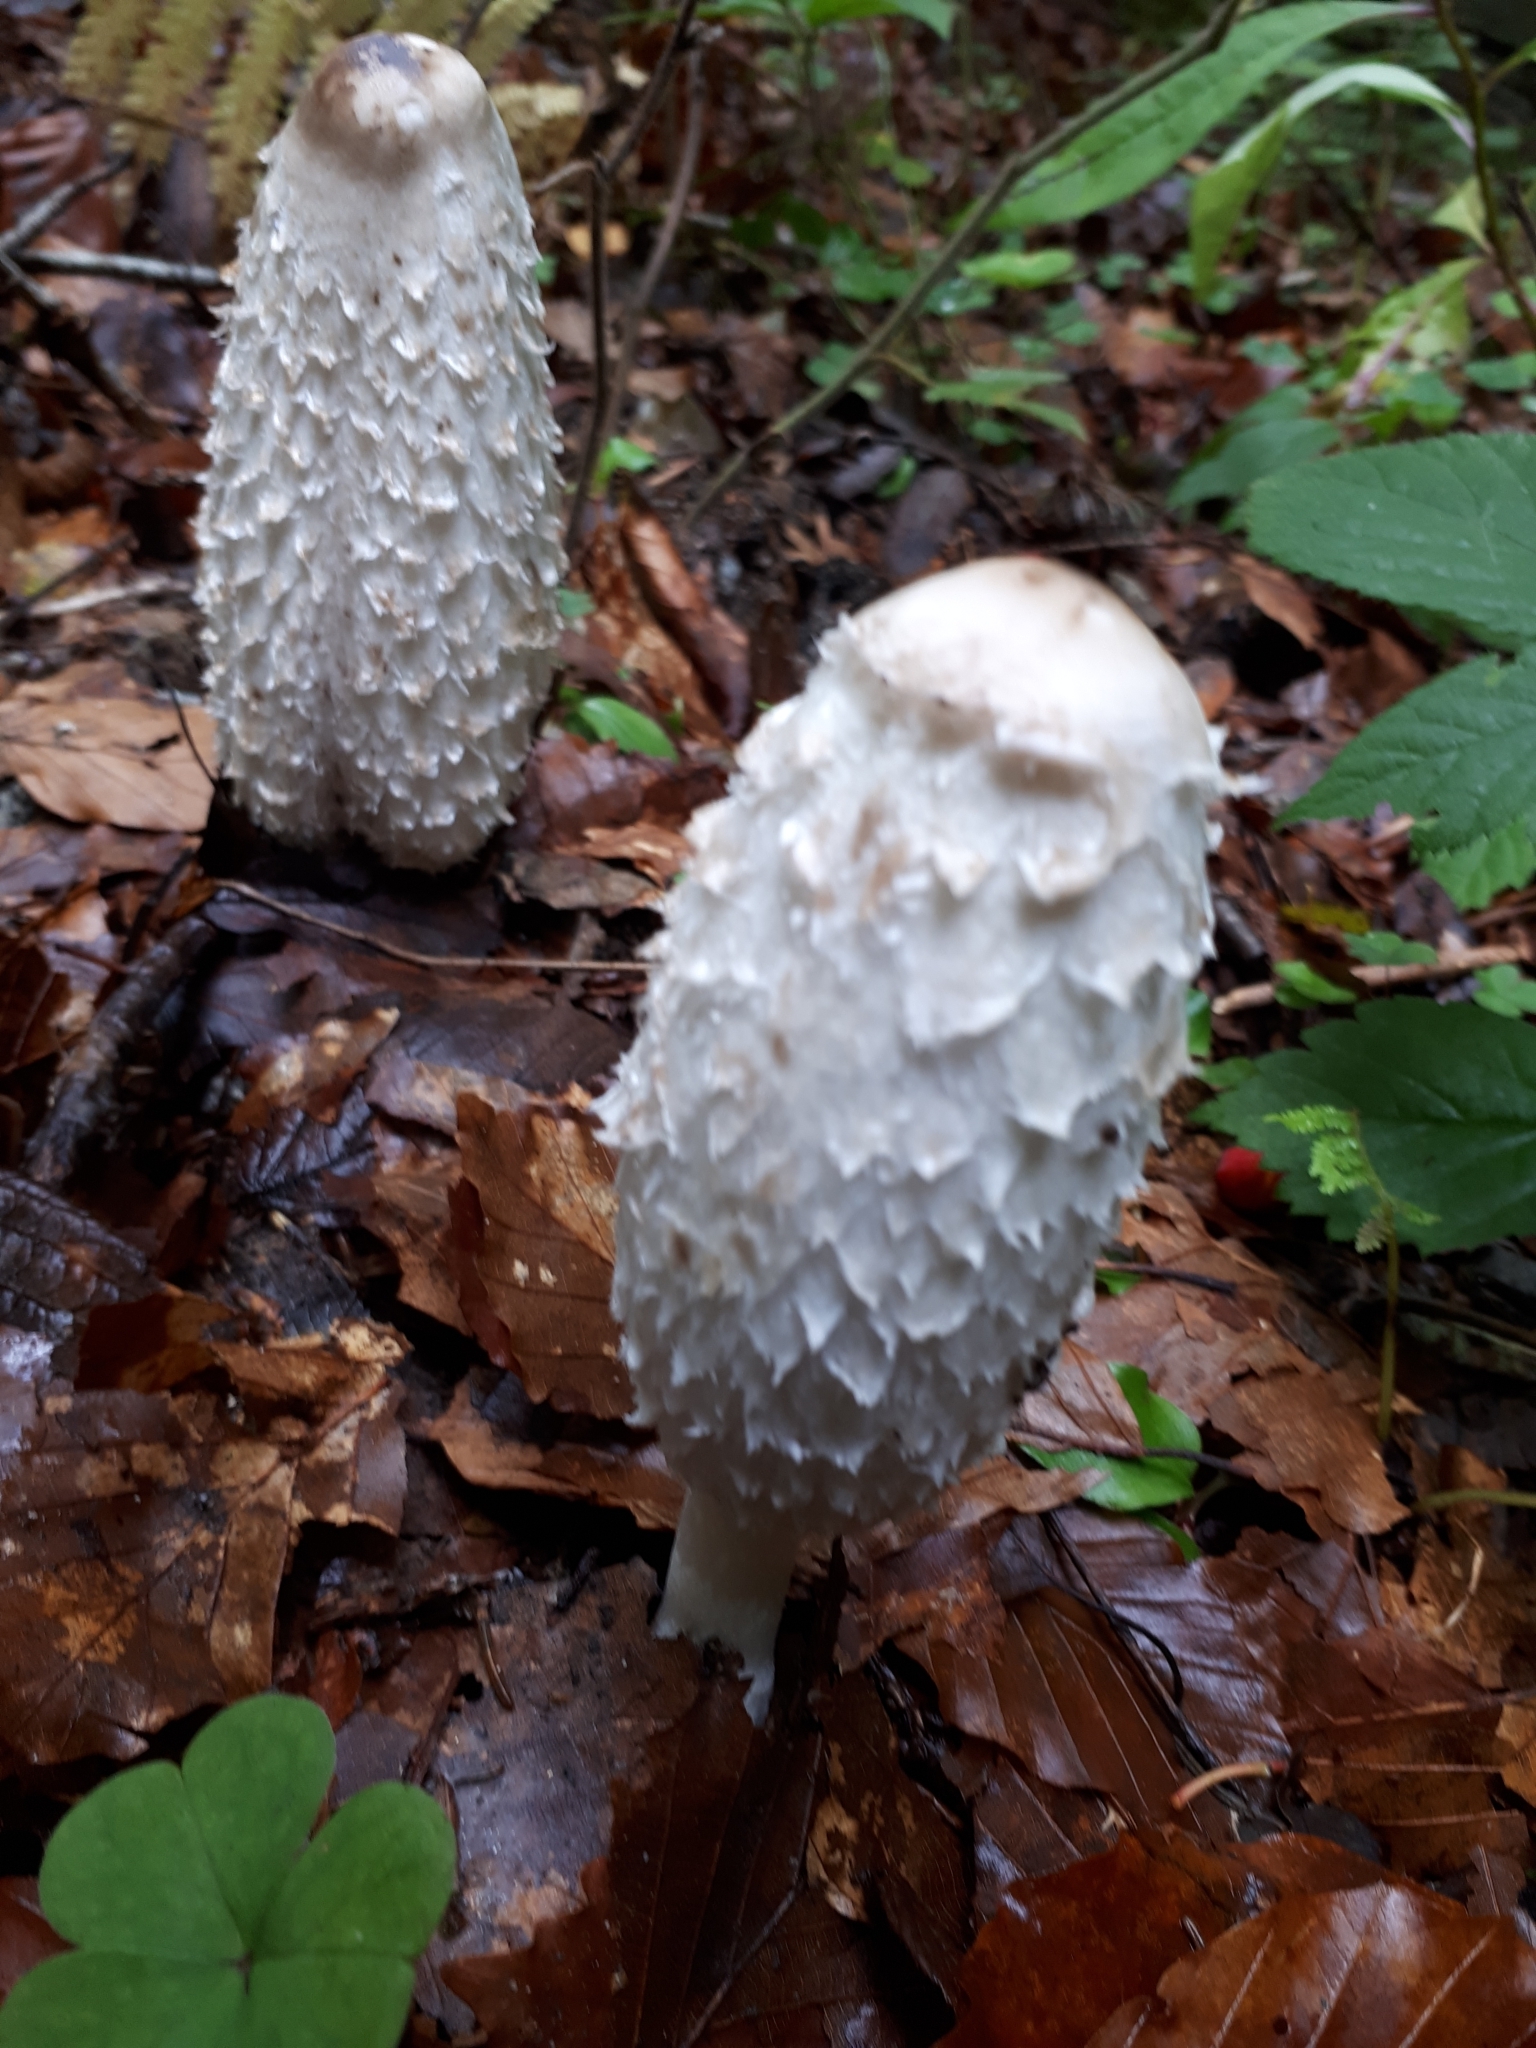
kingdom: Fungi
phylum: Basidiomycota
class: Agaricomycetes
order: Agaricales
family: Agaricaceae
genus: Coprinus
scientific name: Coprinus comatus
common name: Lawyer's wig
